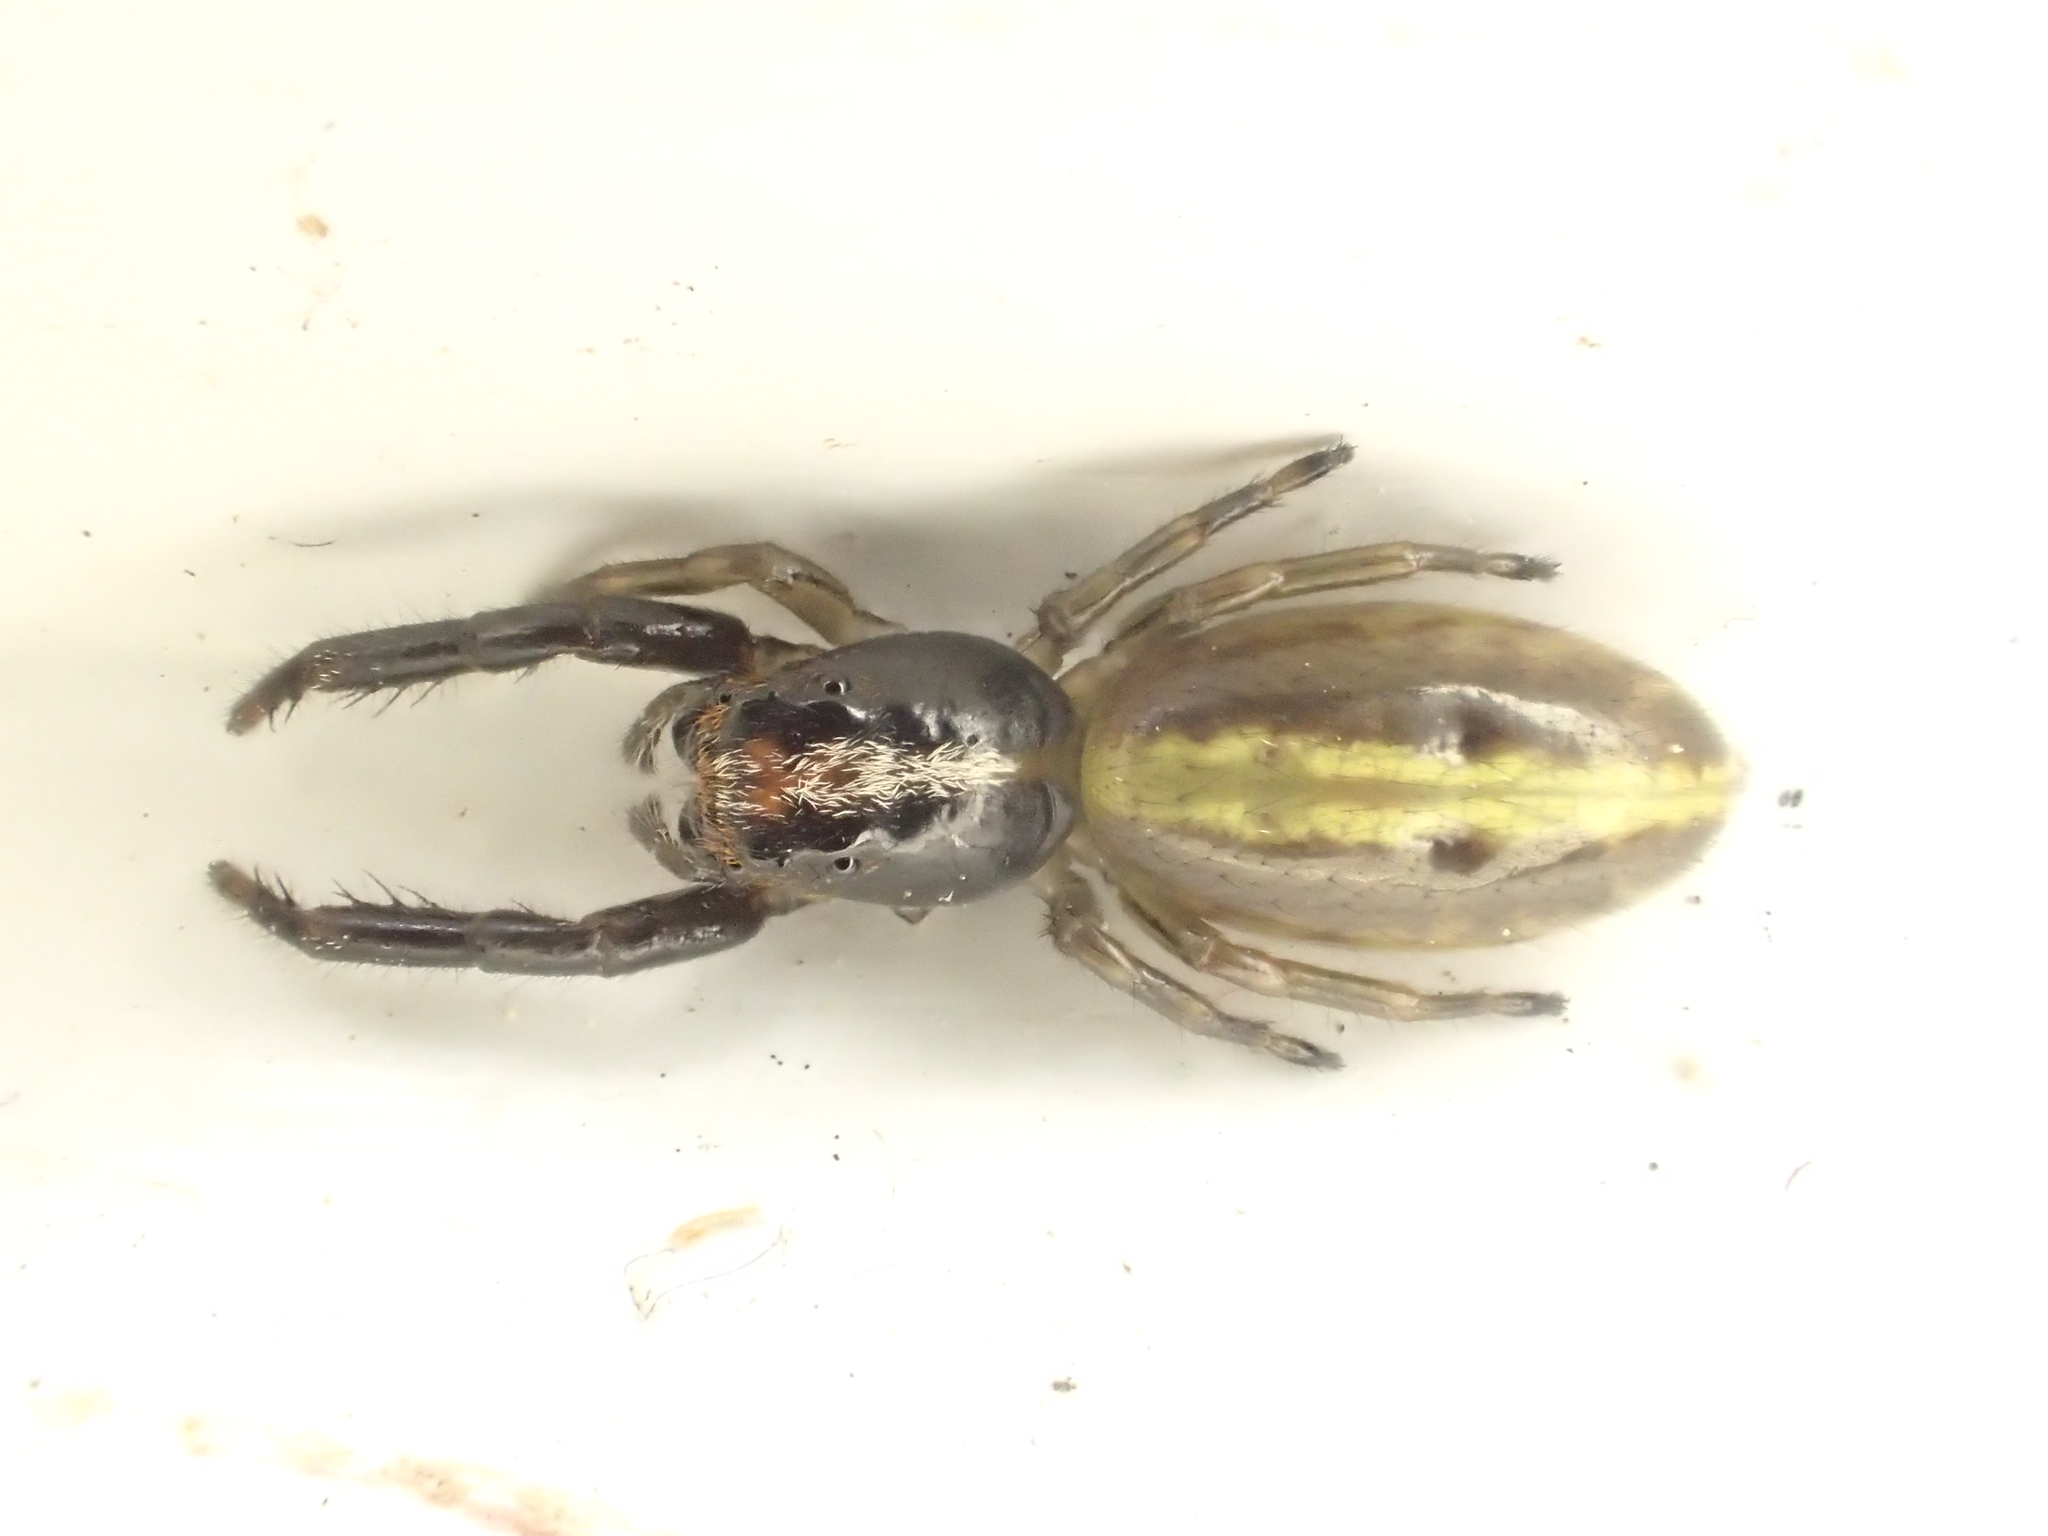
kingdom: Animalia
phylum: Arthropoda
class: Arachnida
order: Araneae
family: Salticidae
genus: Trite
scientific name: Trite planiceps
